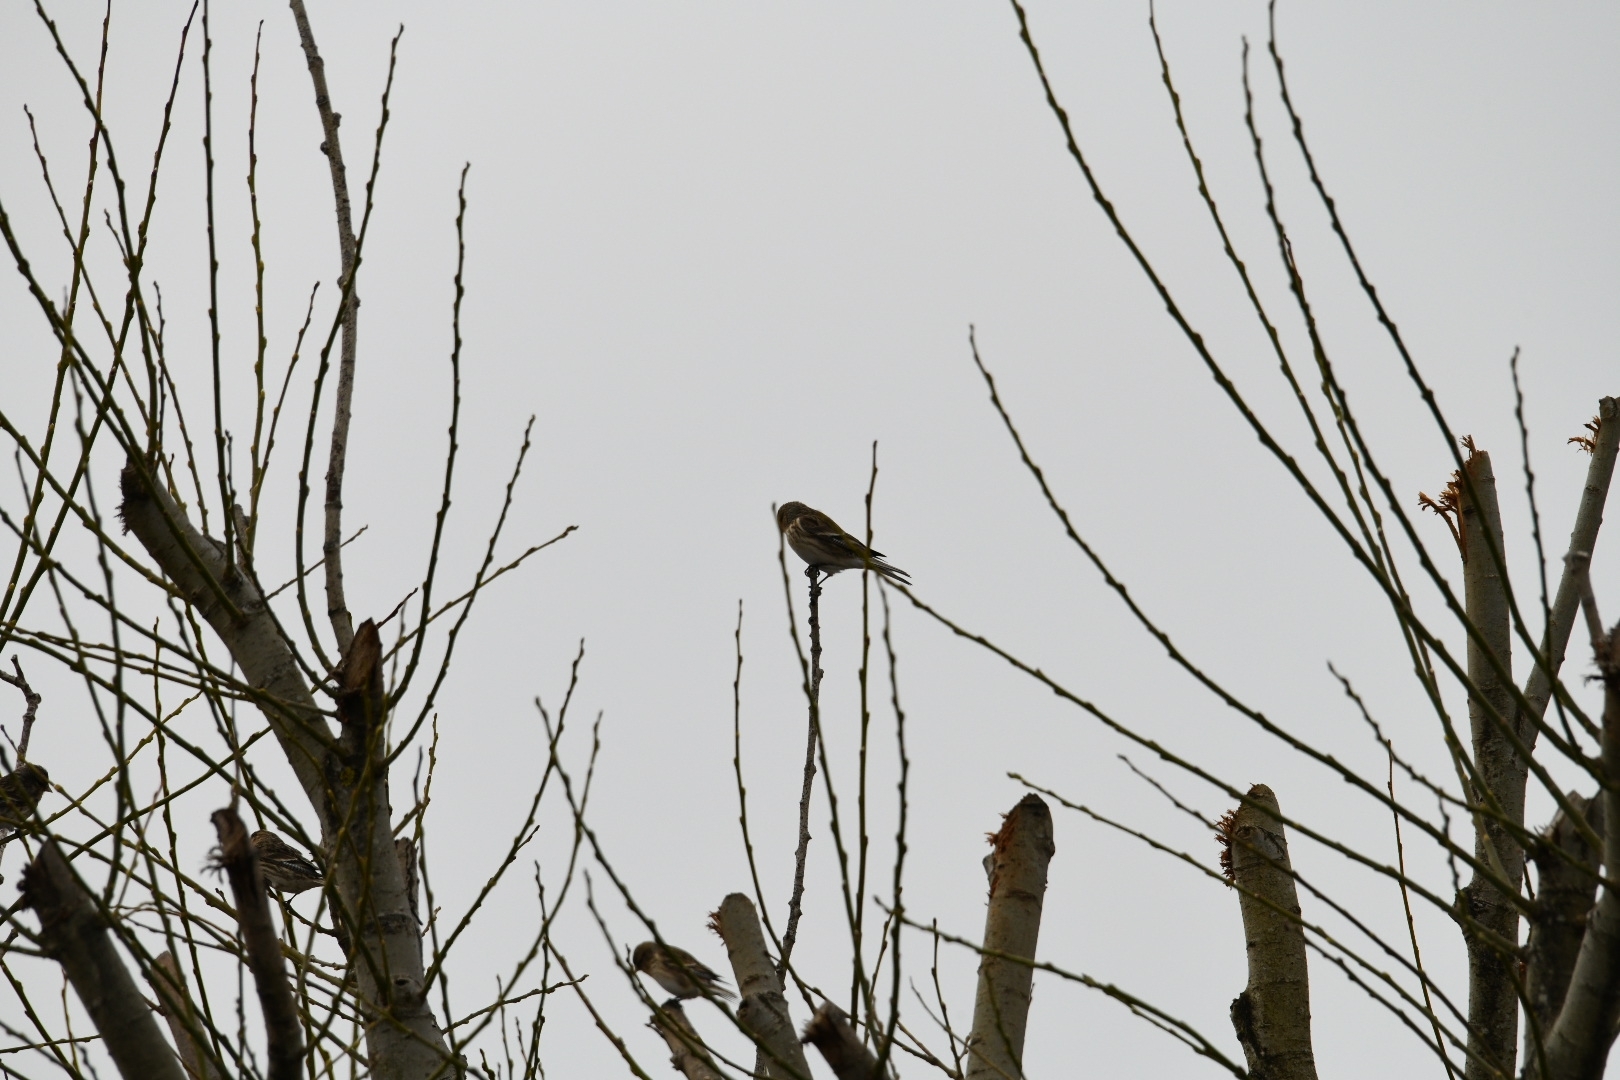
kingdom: Animalia
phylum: Chordata
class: Aves
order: Passeriformes
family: Fringillidae
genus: Linaria
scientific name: Linaria flavirostris
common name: Twite
